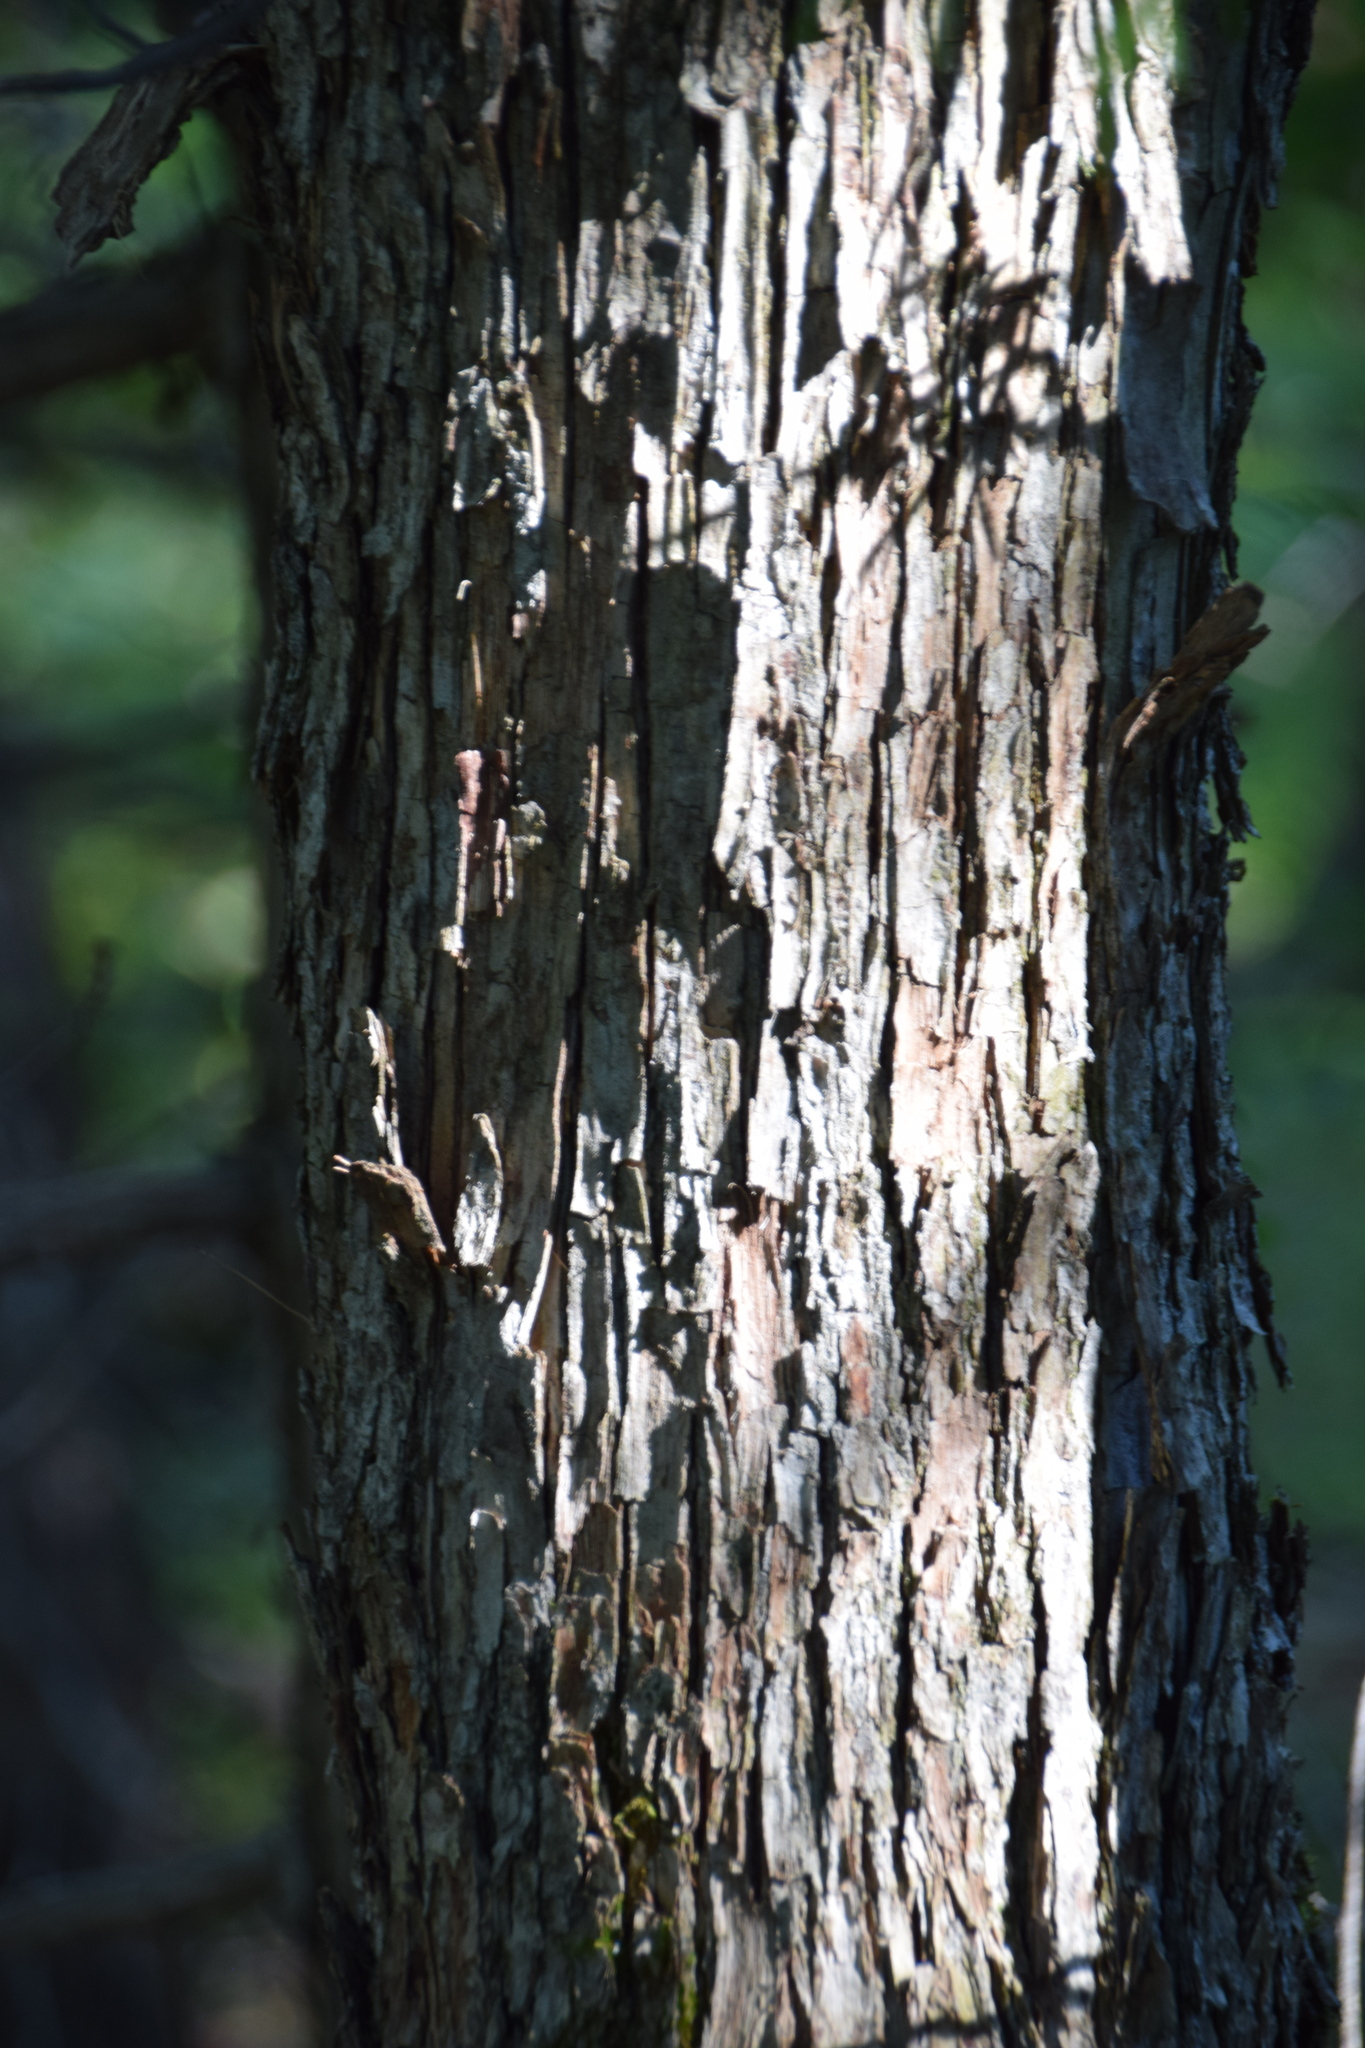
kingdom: Plantae
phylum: Tracheophyta
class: Magnoliopsida
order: Fagales
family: Betulaceae
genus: Ostrya
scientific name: Ostrya virginiana
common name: Ironwood
